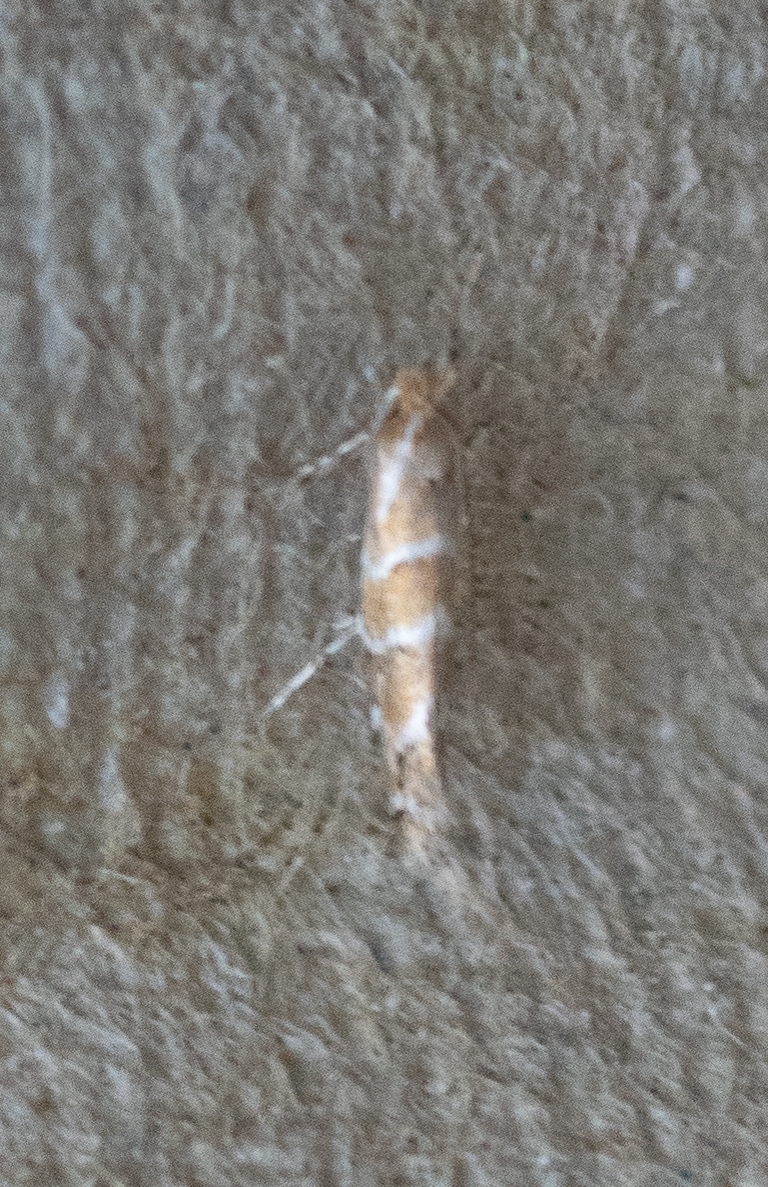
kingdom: Animalia
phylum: Arthropoda
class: Insecta
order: Lepidoptera
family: Gracillariidae
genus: Cameraria
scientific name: Cameraria ohridella
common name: Horse-chestnut leaf-miner
